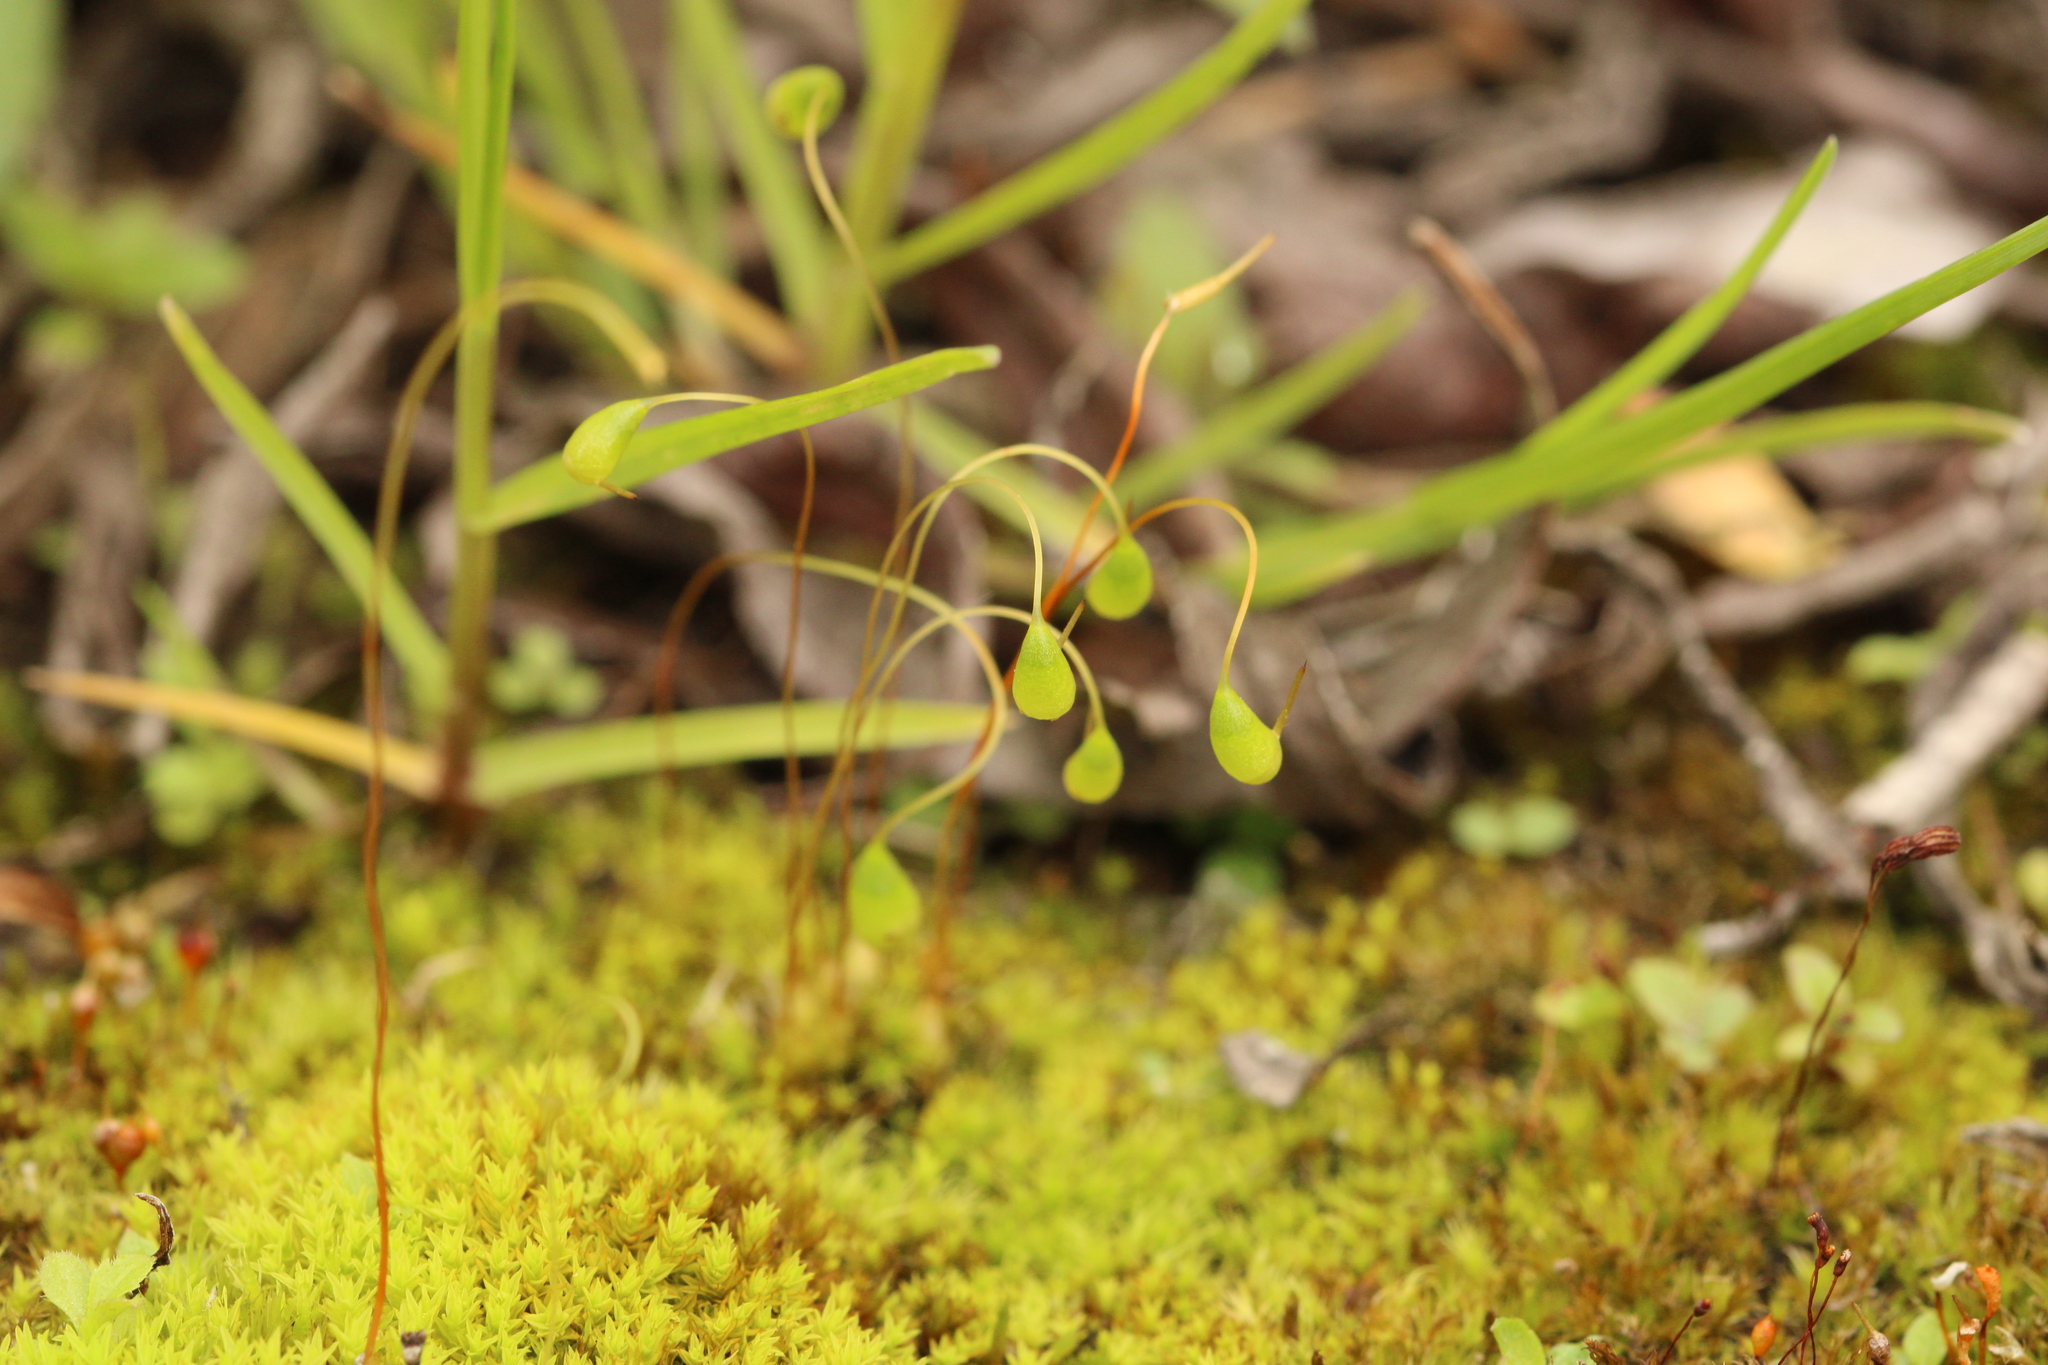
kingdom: Plantae
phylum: Bryophyta
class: Bryopsida
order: Funariales
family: Funariaceae
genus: Funaria
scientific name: Funaria hygrometrica
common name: Common cord moss
